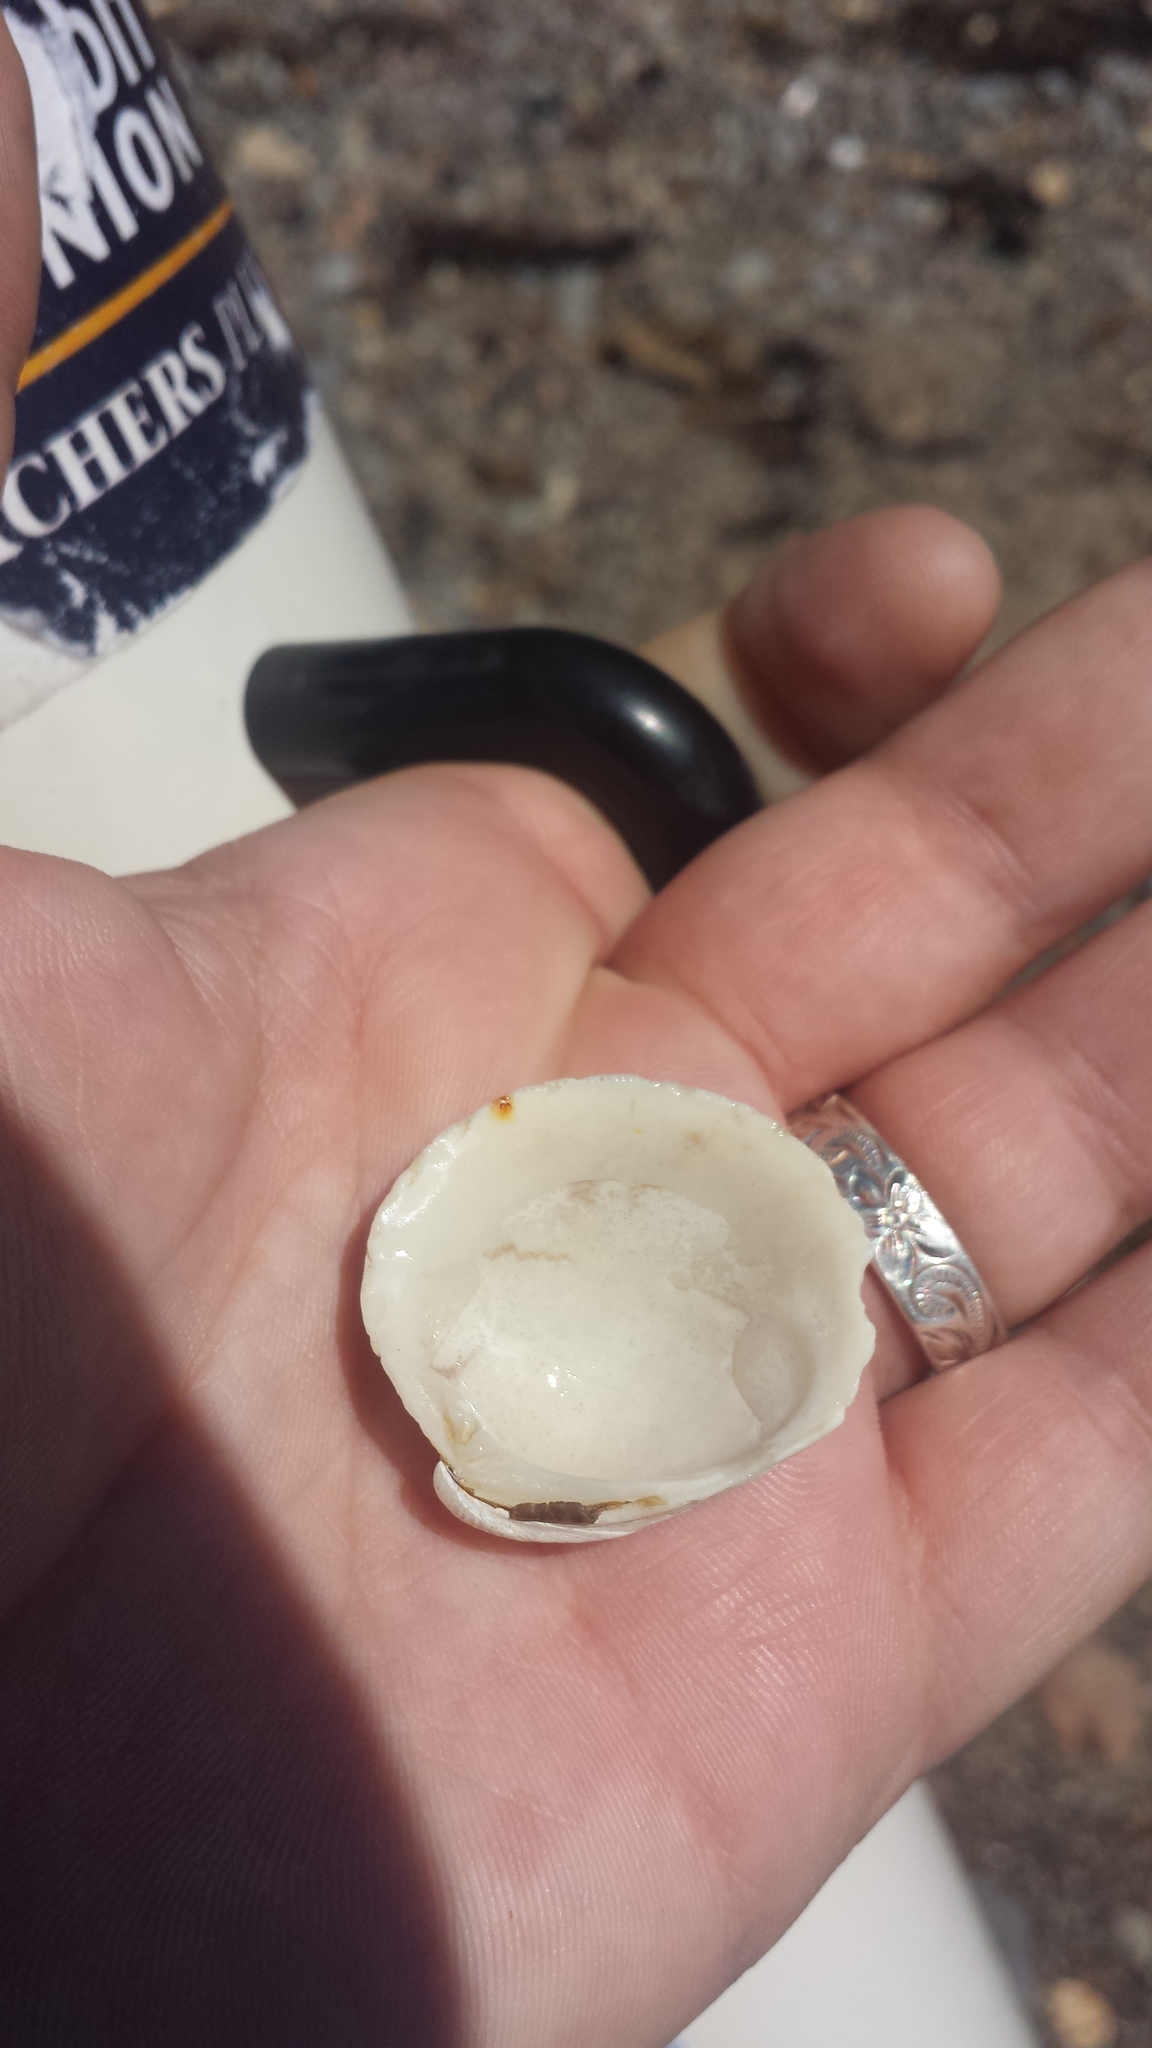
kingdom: Animalia
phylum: Mollusca
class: Bivalvia
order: Venerida
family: Veneridae
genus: Mercenaria
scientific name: Mercenaria mercenaria
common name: American hard-shelled clam
